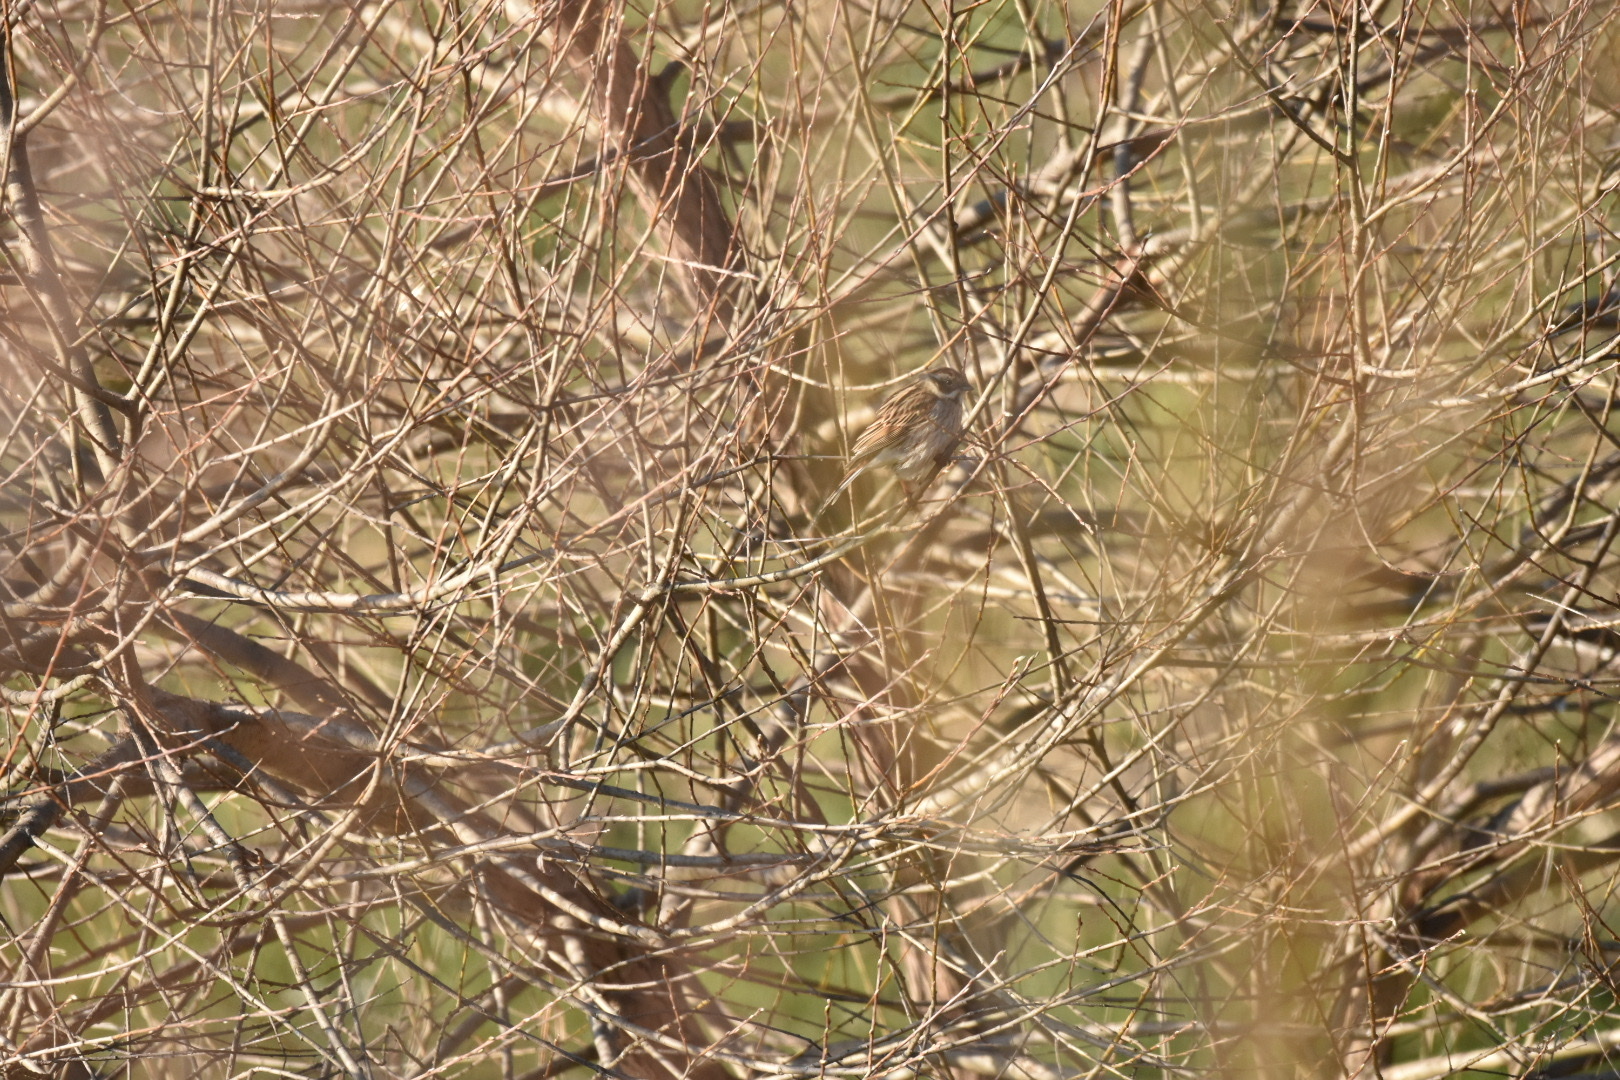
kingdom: Animalia
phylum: Chordata
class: Aves
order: Passeriformes
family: Emberizidae
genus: Emberiza
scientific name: Emberiza schoeniclus
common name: Reed bunting
